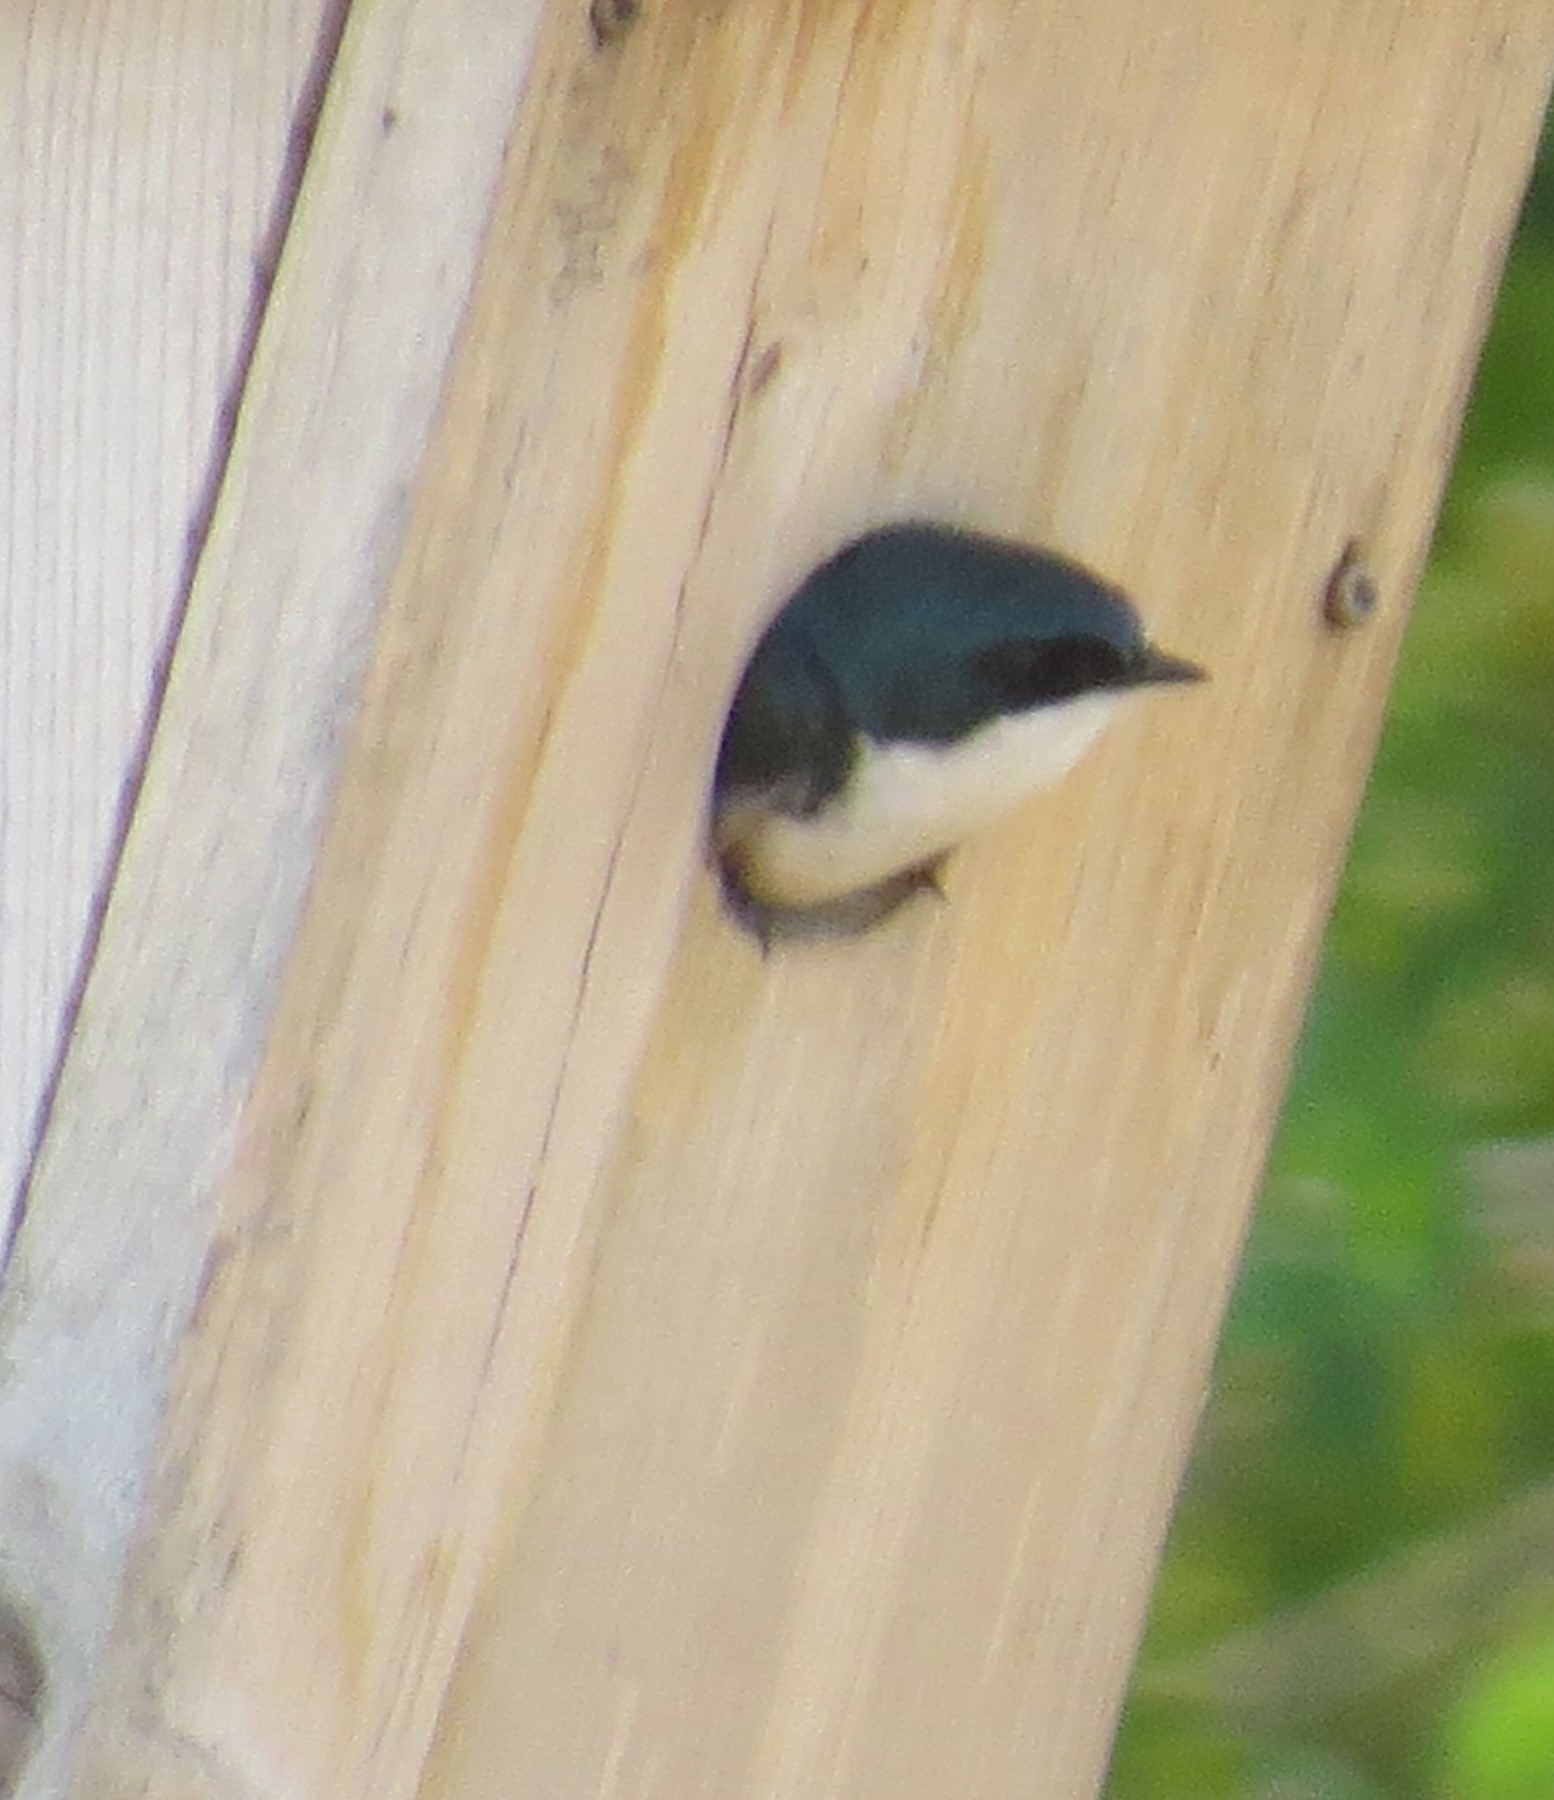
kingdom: Animalia
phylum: Chordata
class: Aves
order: Passeriformes
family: Hirundinidae
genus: Tachycineta
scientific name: Tachycineta bicolor
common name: Tree swallow
